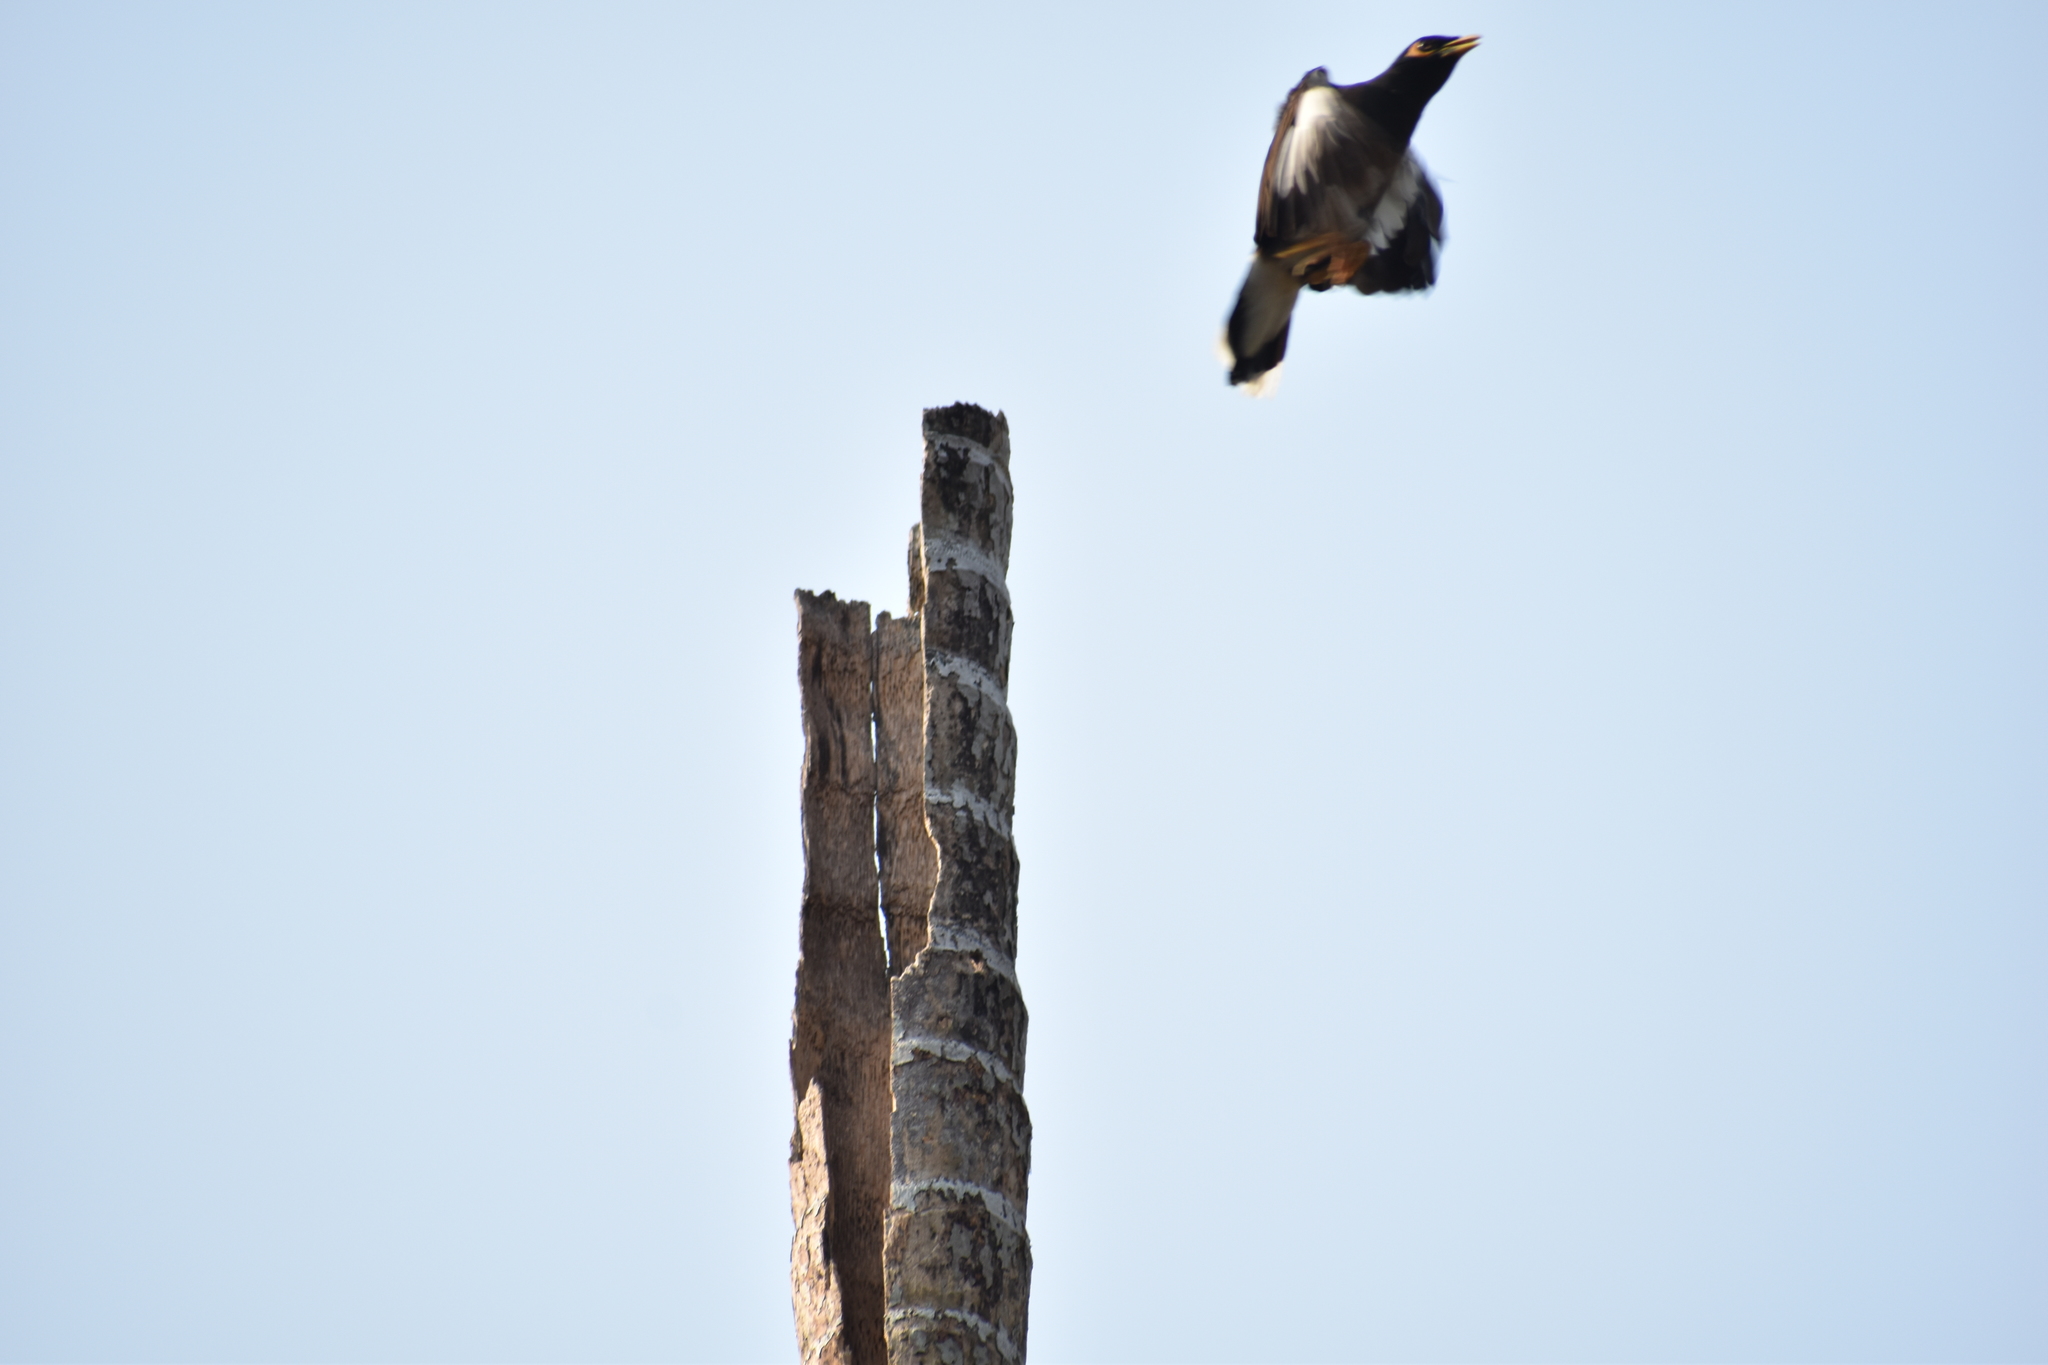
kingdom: Animalia
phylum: Chordata
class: Aves
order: Passeriformes
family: Sturnidae
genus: Acridotheres
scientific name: Acridotheres tristis
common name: Common myna
